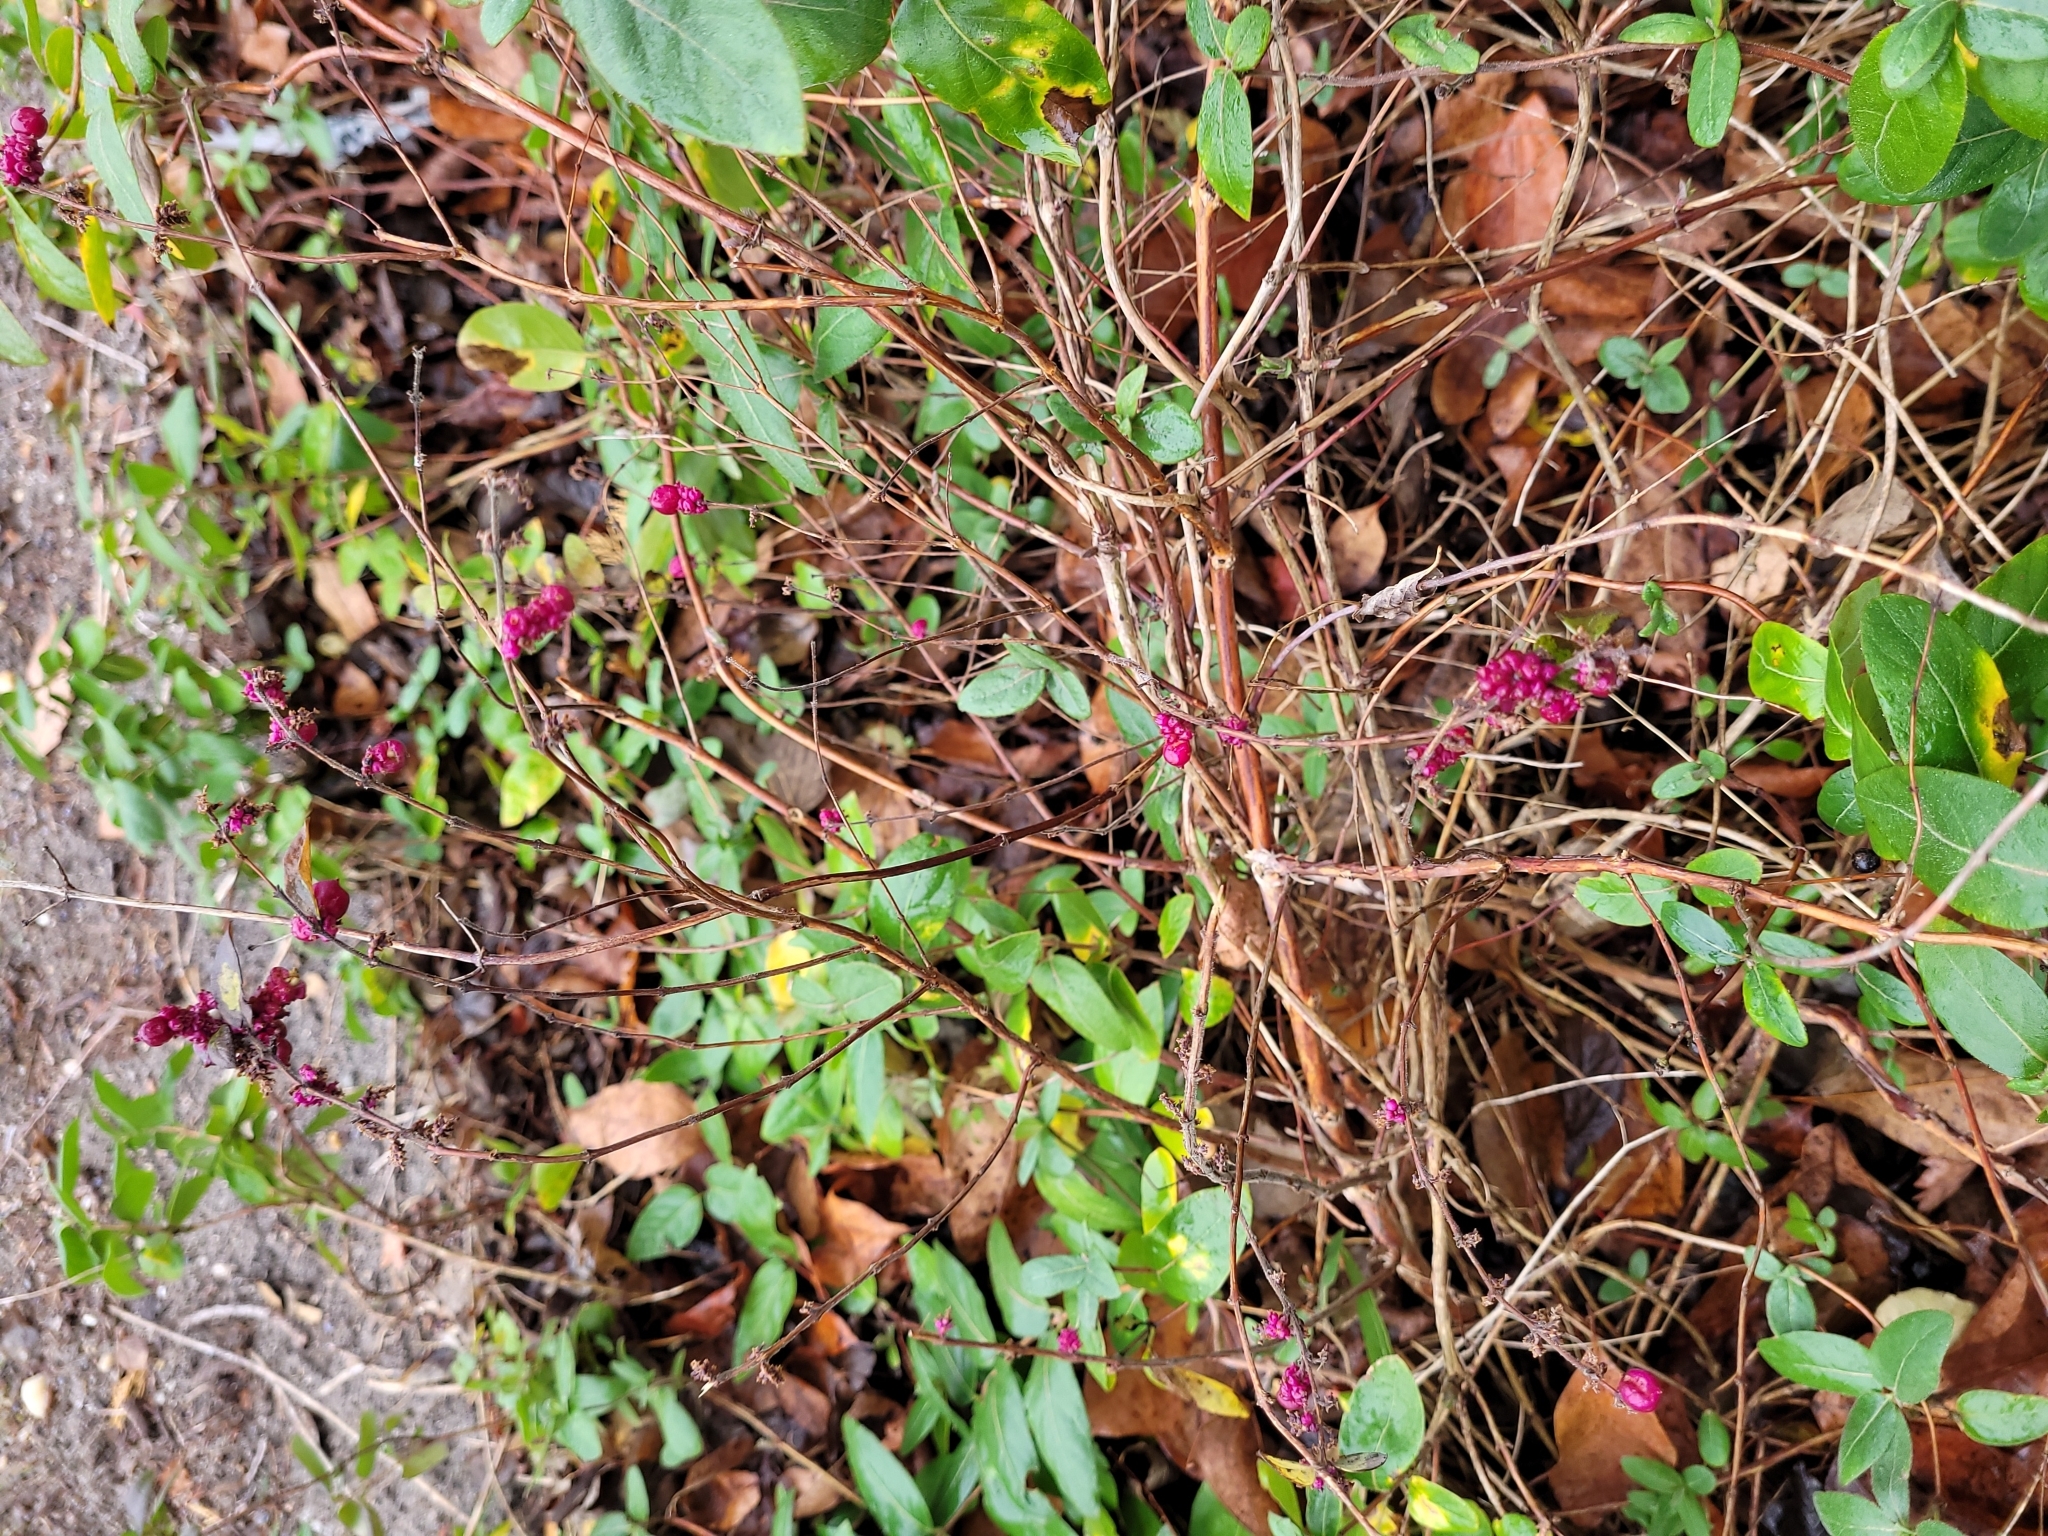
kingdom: Plantae
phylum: Tracheophyta
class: Magnoliopsida
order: Dipsacales
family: Caprifoliaceae
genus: Symphoricarpos
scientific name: Symphoricarpos orbiculatus
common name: Coralberry
